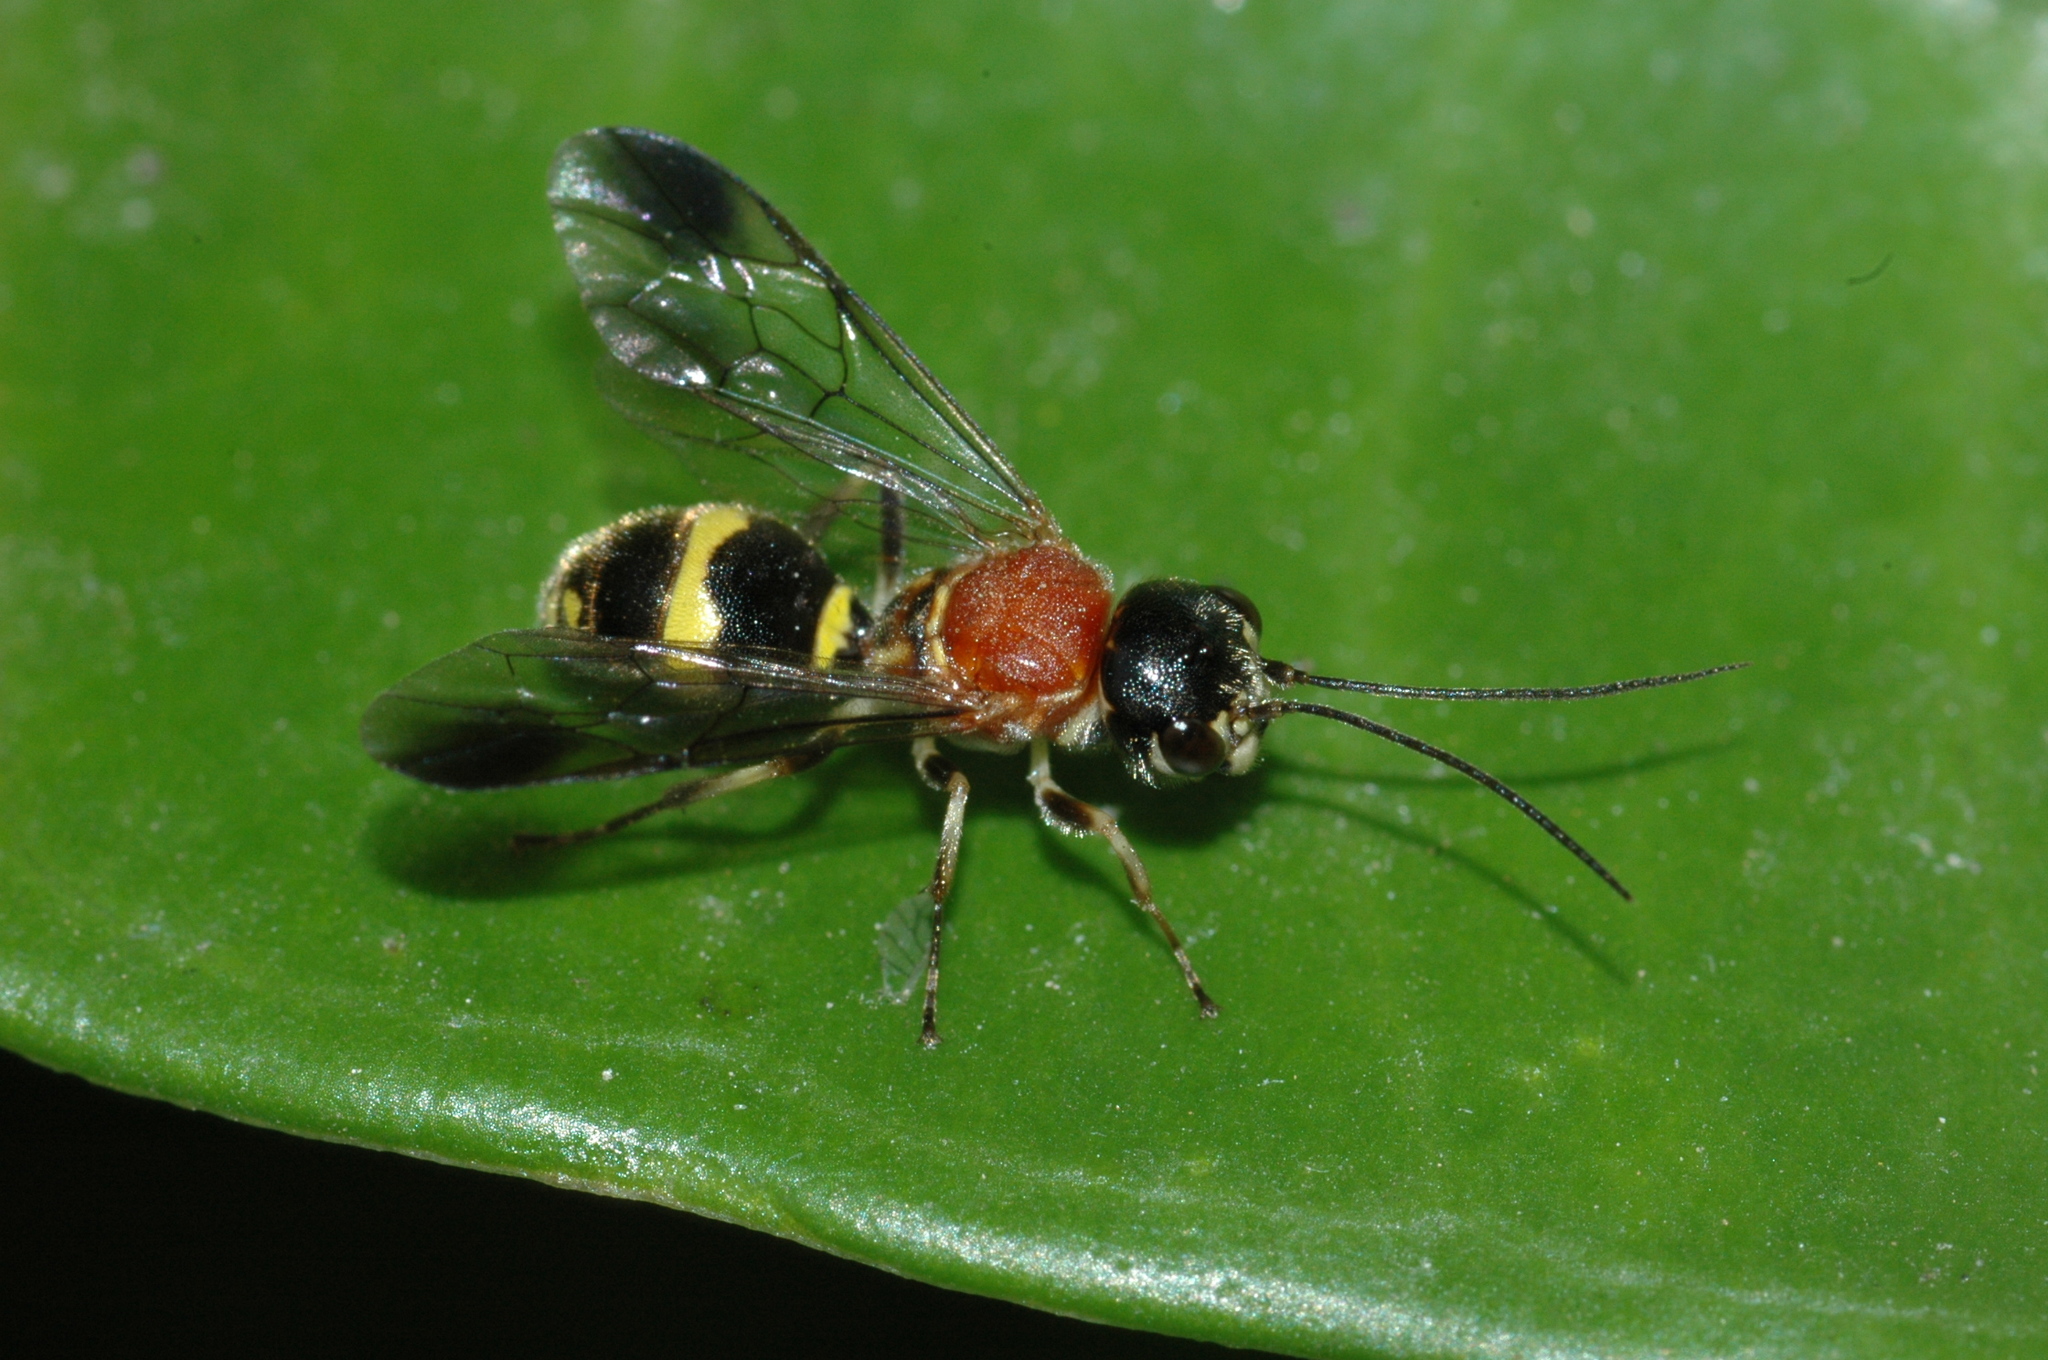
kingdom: Animalia
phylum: Arthropoda
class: Insecta
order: Hymenoptera
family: Trigonalidae
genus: Taeniogonalos
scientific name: Taeniogonalos fasciata
